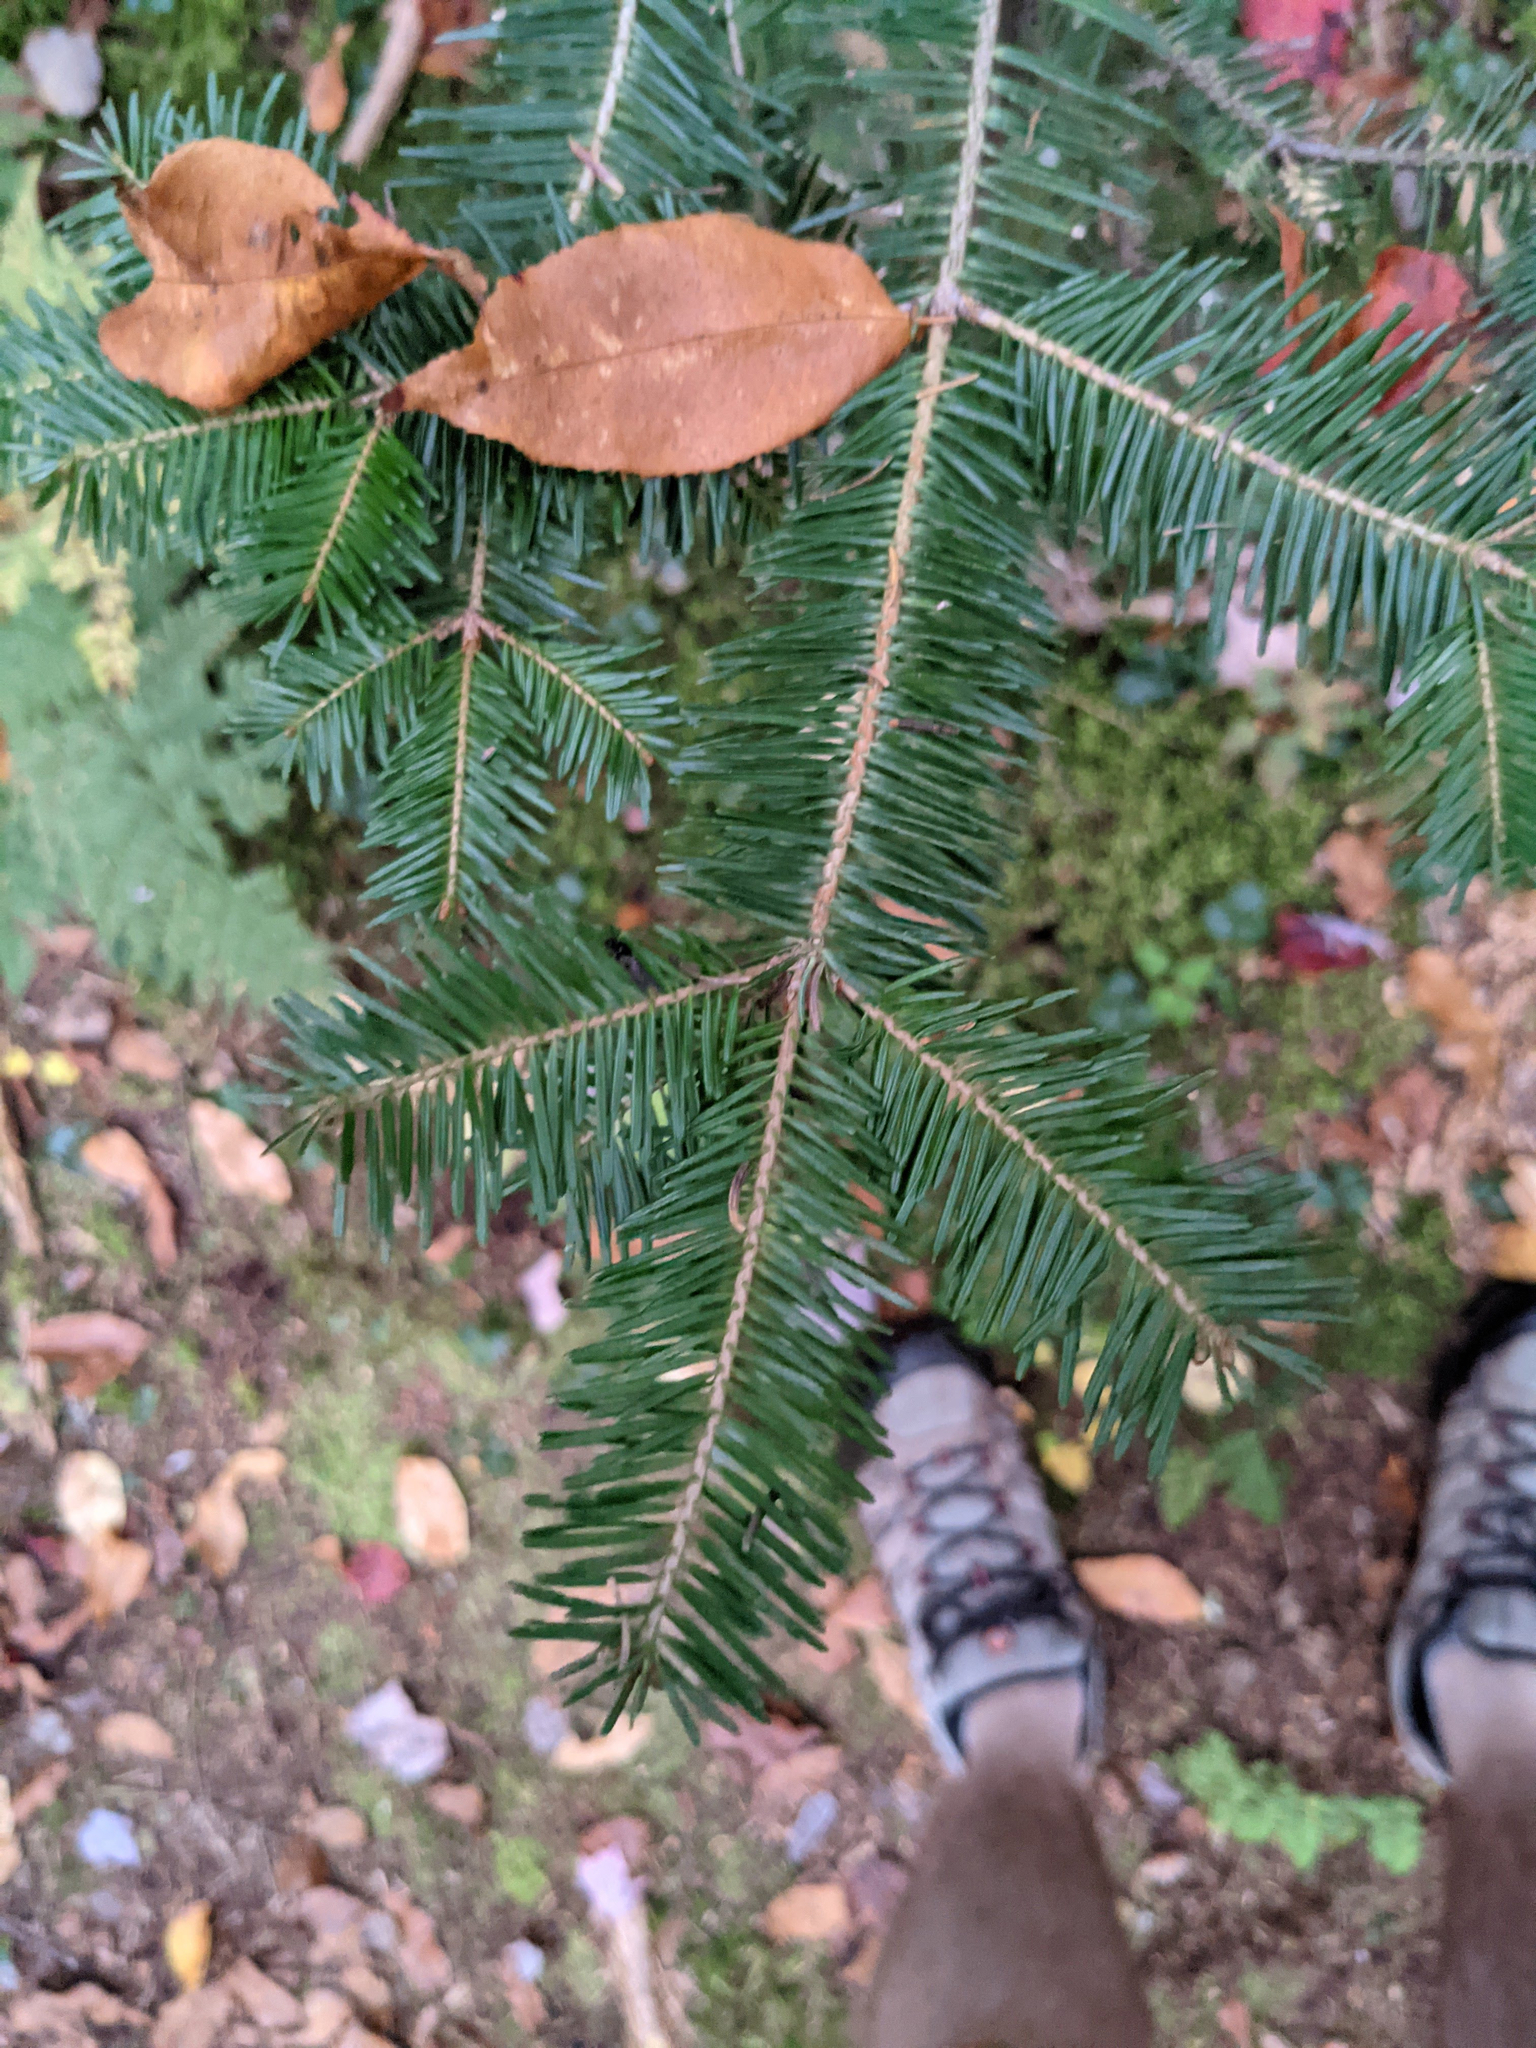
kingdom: Plantae
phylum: Tracheophyta
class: Pinopsida
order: Pinales
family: Pinaceae
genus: Abies
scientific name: Abies balsamea
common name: Balsam fir
